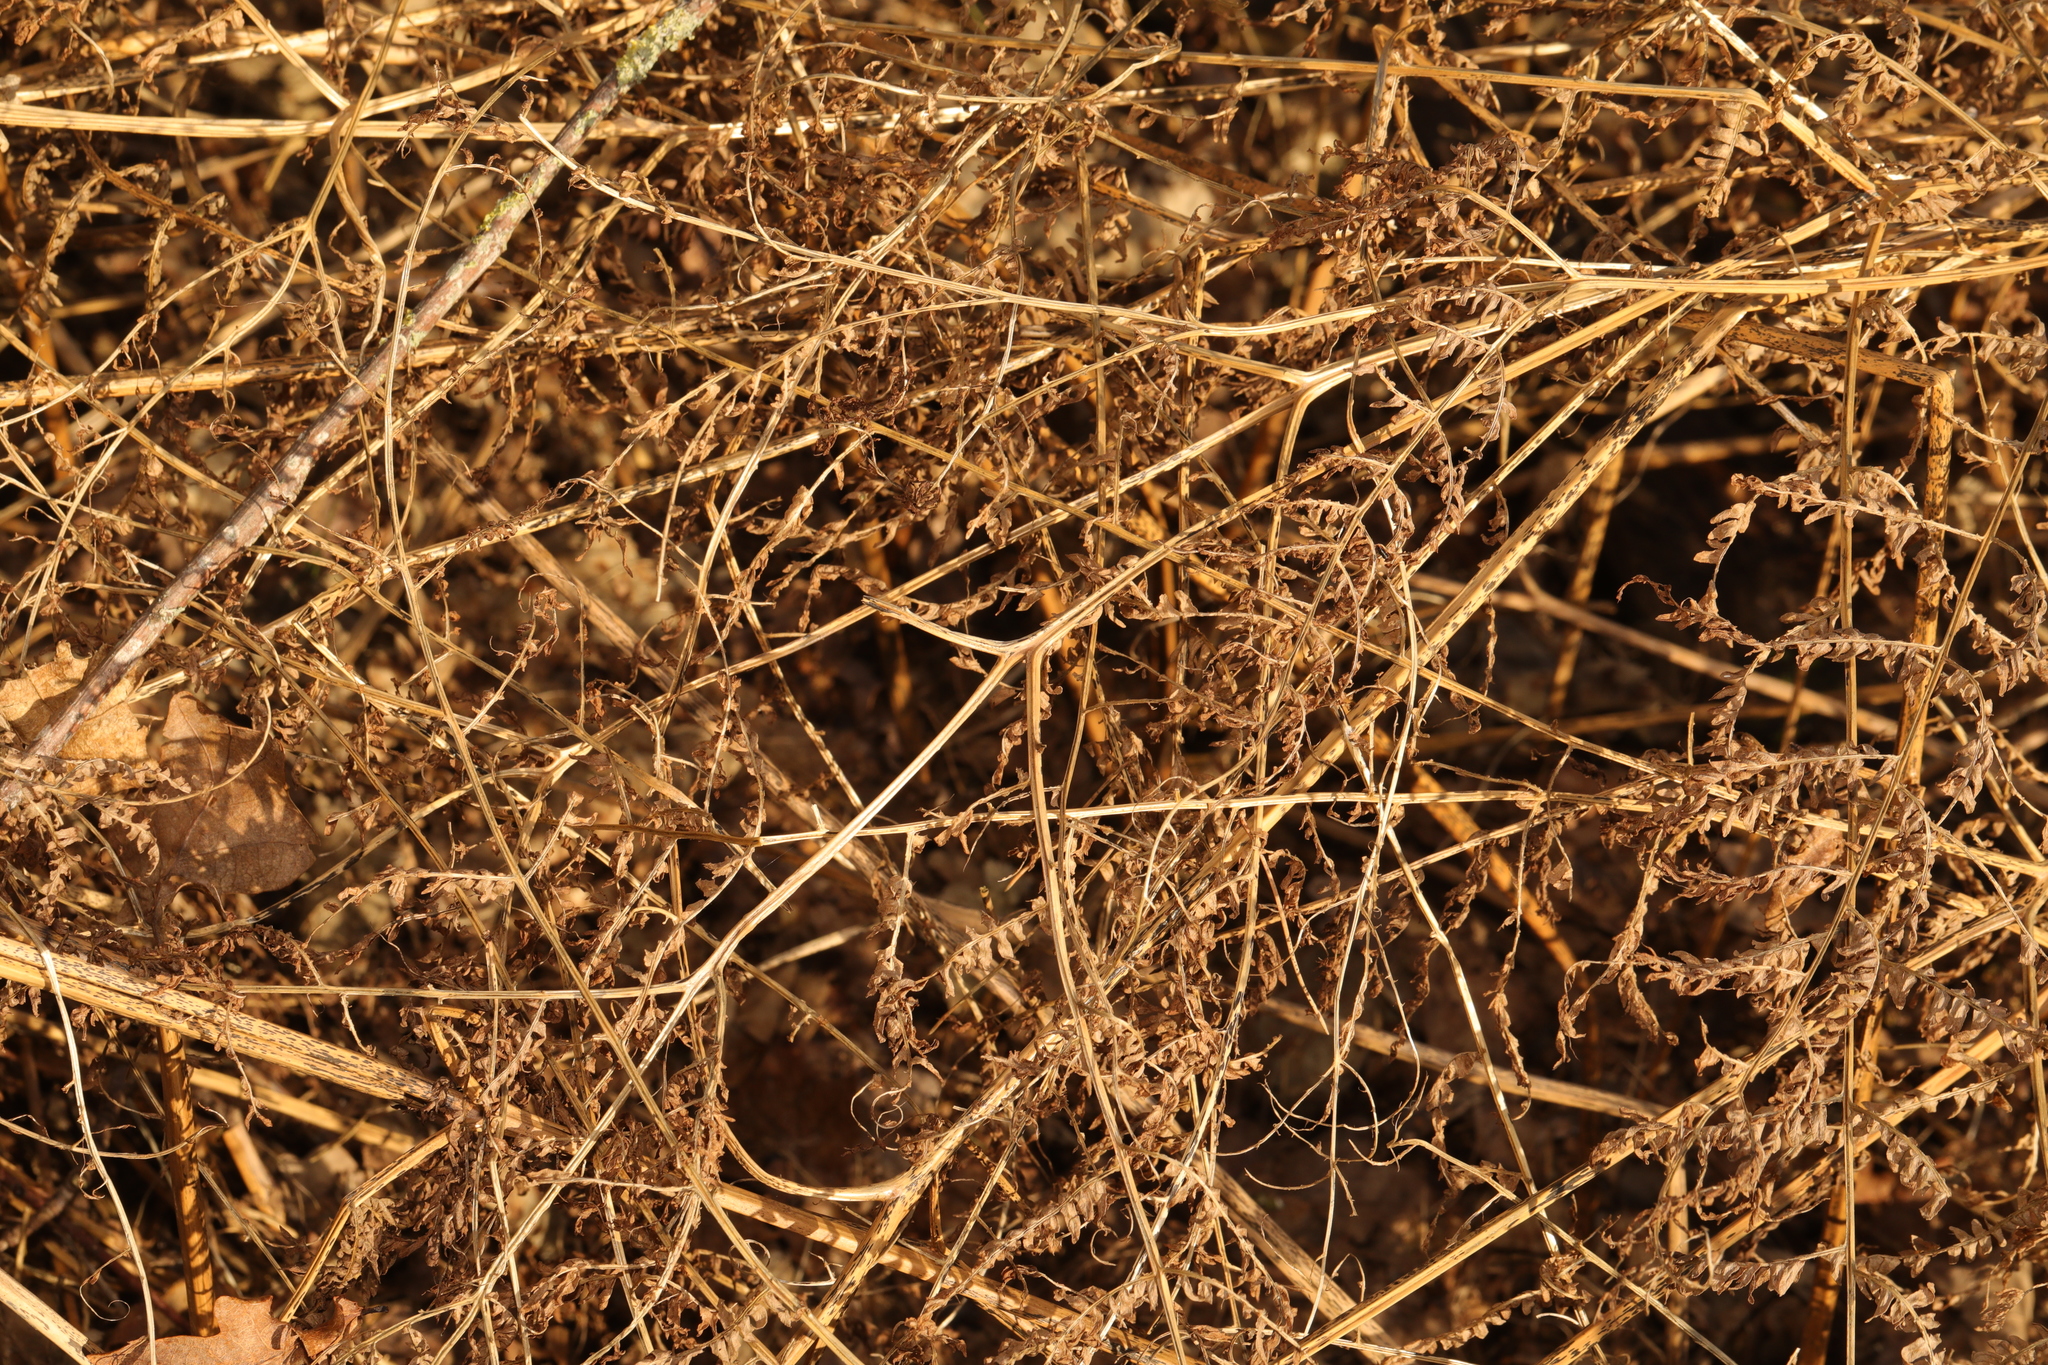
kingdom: Plantae
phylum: Tracheophyta
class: Polypodiopsida
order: Polypodiales
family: Dennstaedtiaceae
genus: Pteridium
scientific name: Pteridium aquilinum
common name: Bracken
